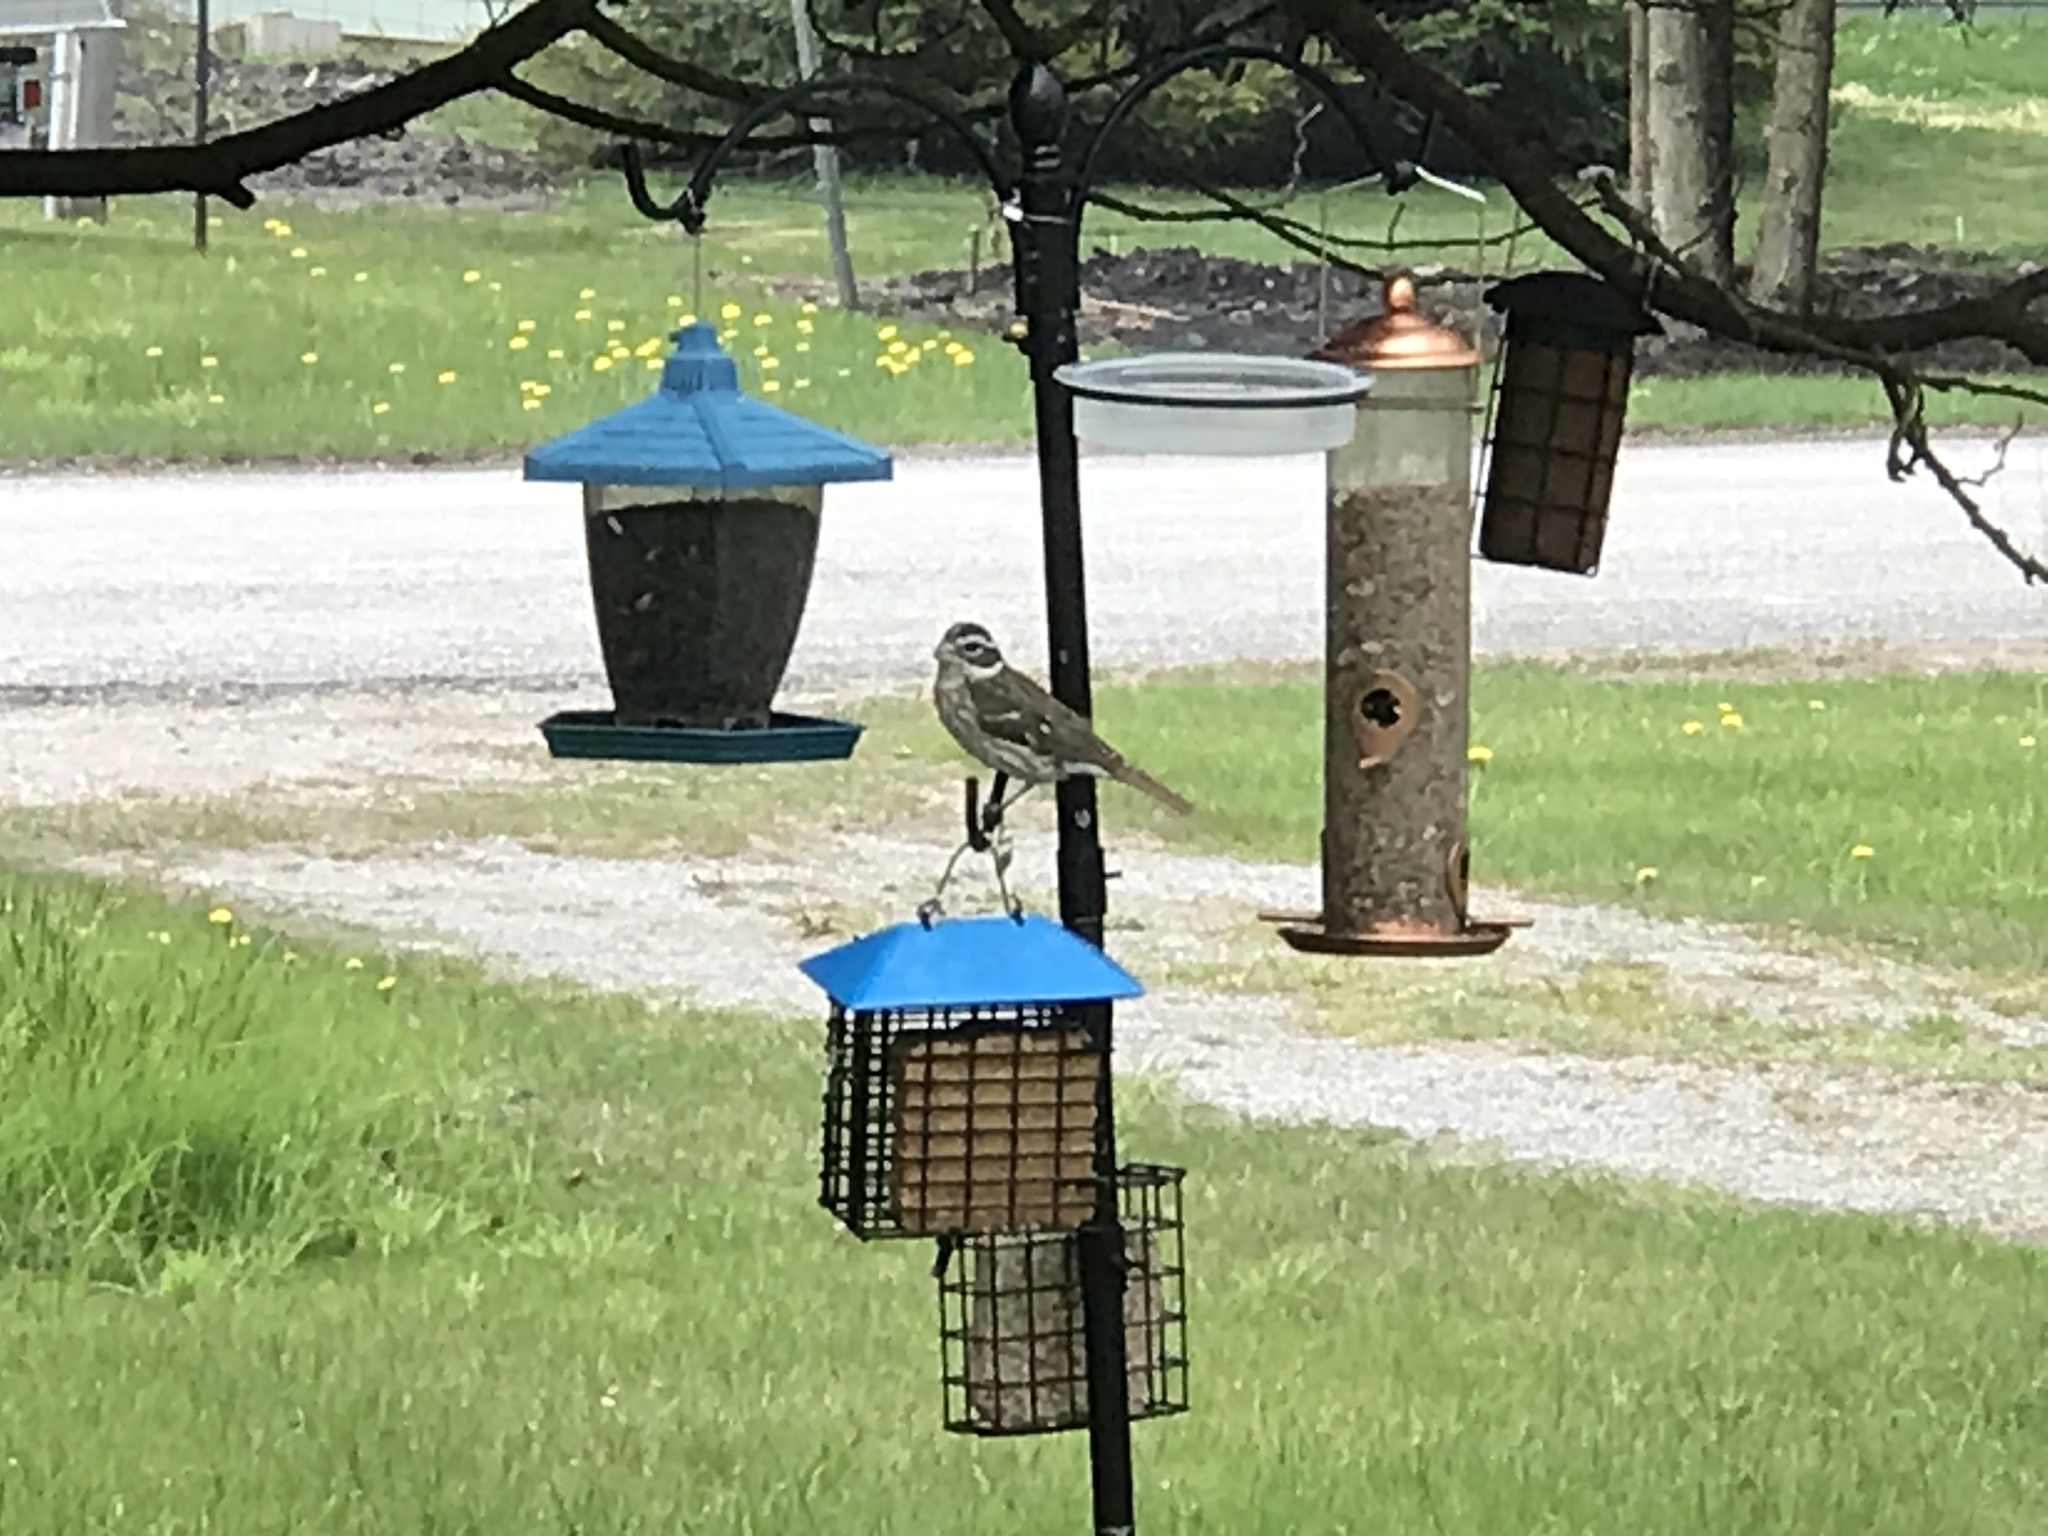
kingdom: Animalia
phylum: Chordata
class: Aves
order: Passeriformes
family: Cardinalidae
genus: Pheucticus
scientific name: Pheucticus ludovicianus
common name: Rose-breasted grosbeak
